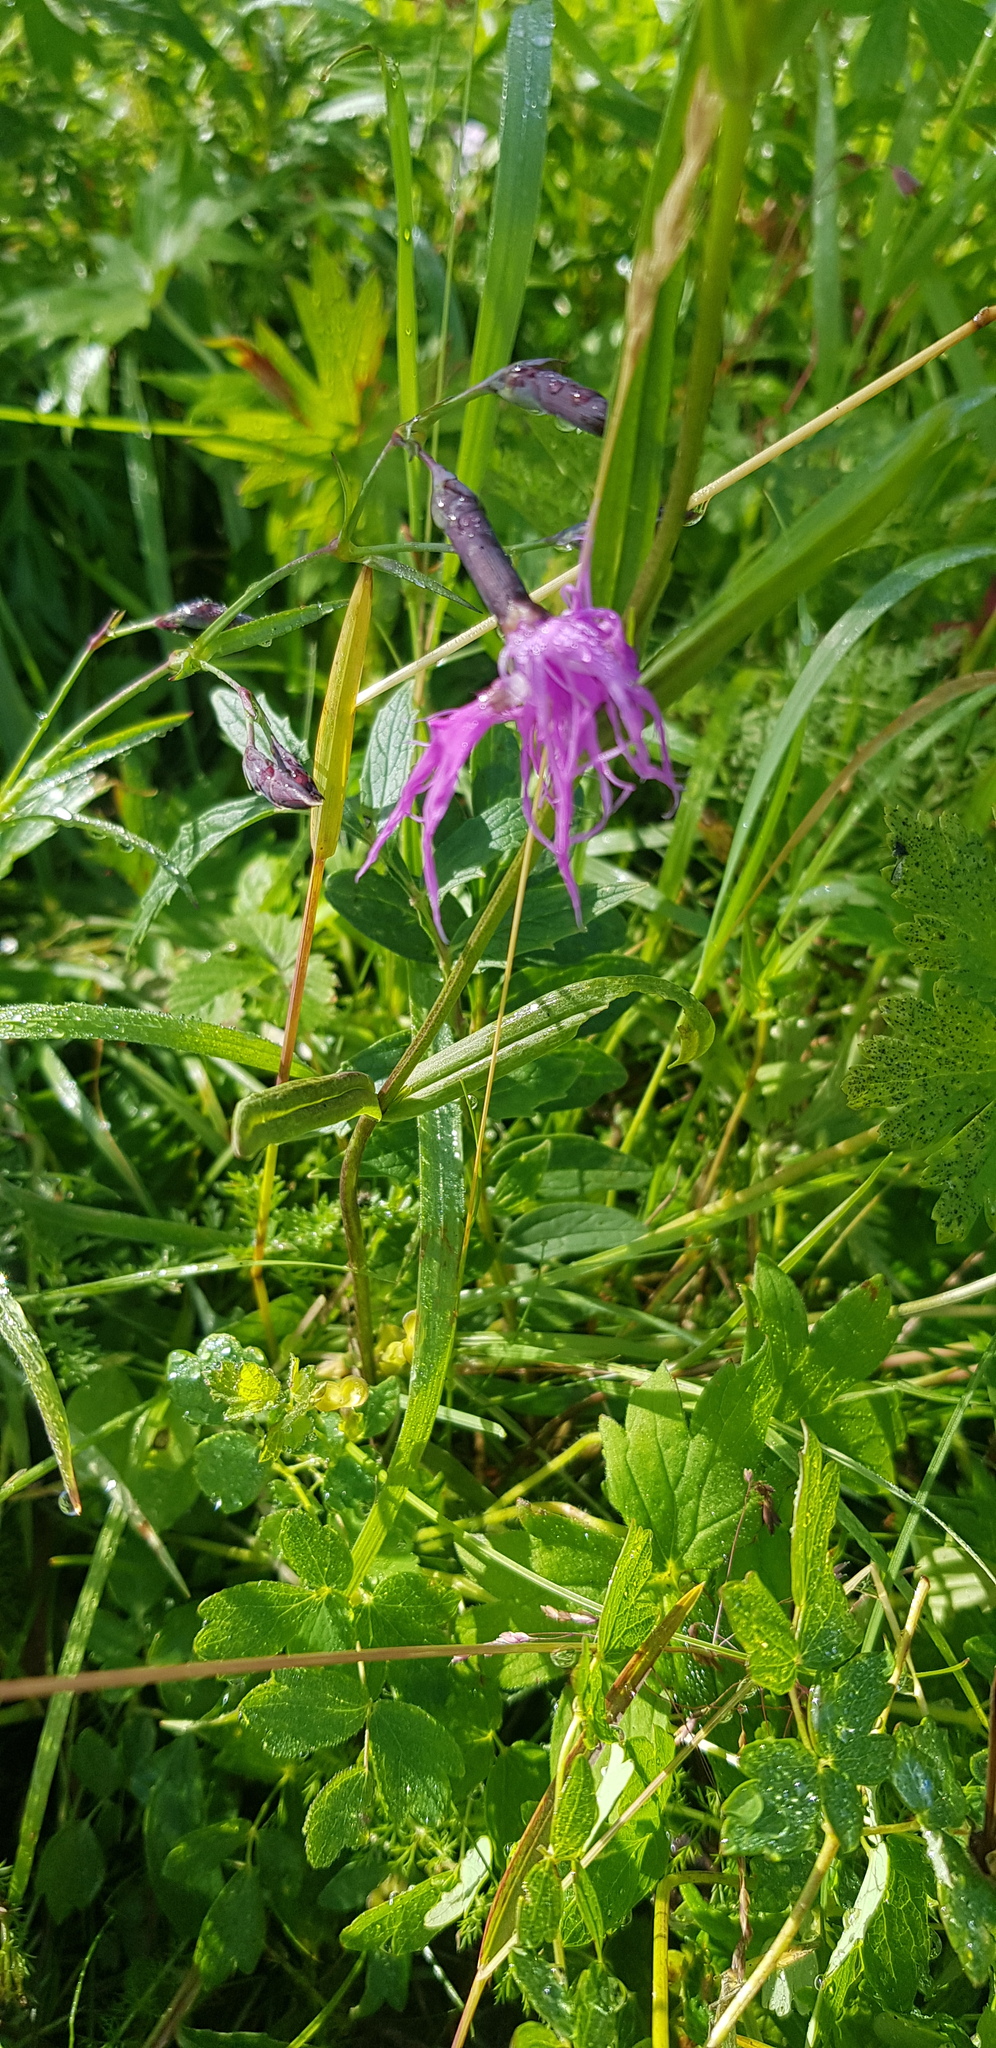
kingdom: Plantae
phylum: Tracheophyta
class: Magnoliopsida
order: Caryophyllales
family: Caryophyllaceae
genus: Dianthus
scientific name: Dianthus superbus
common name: Fringed pink
